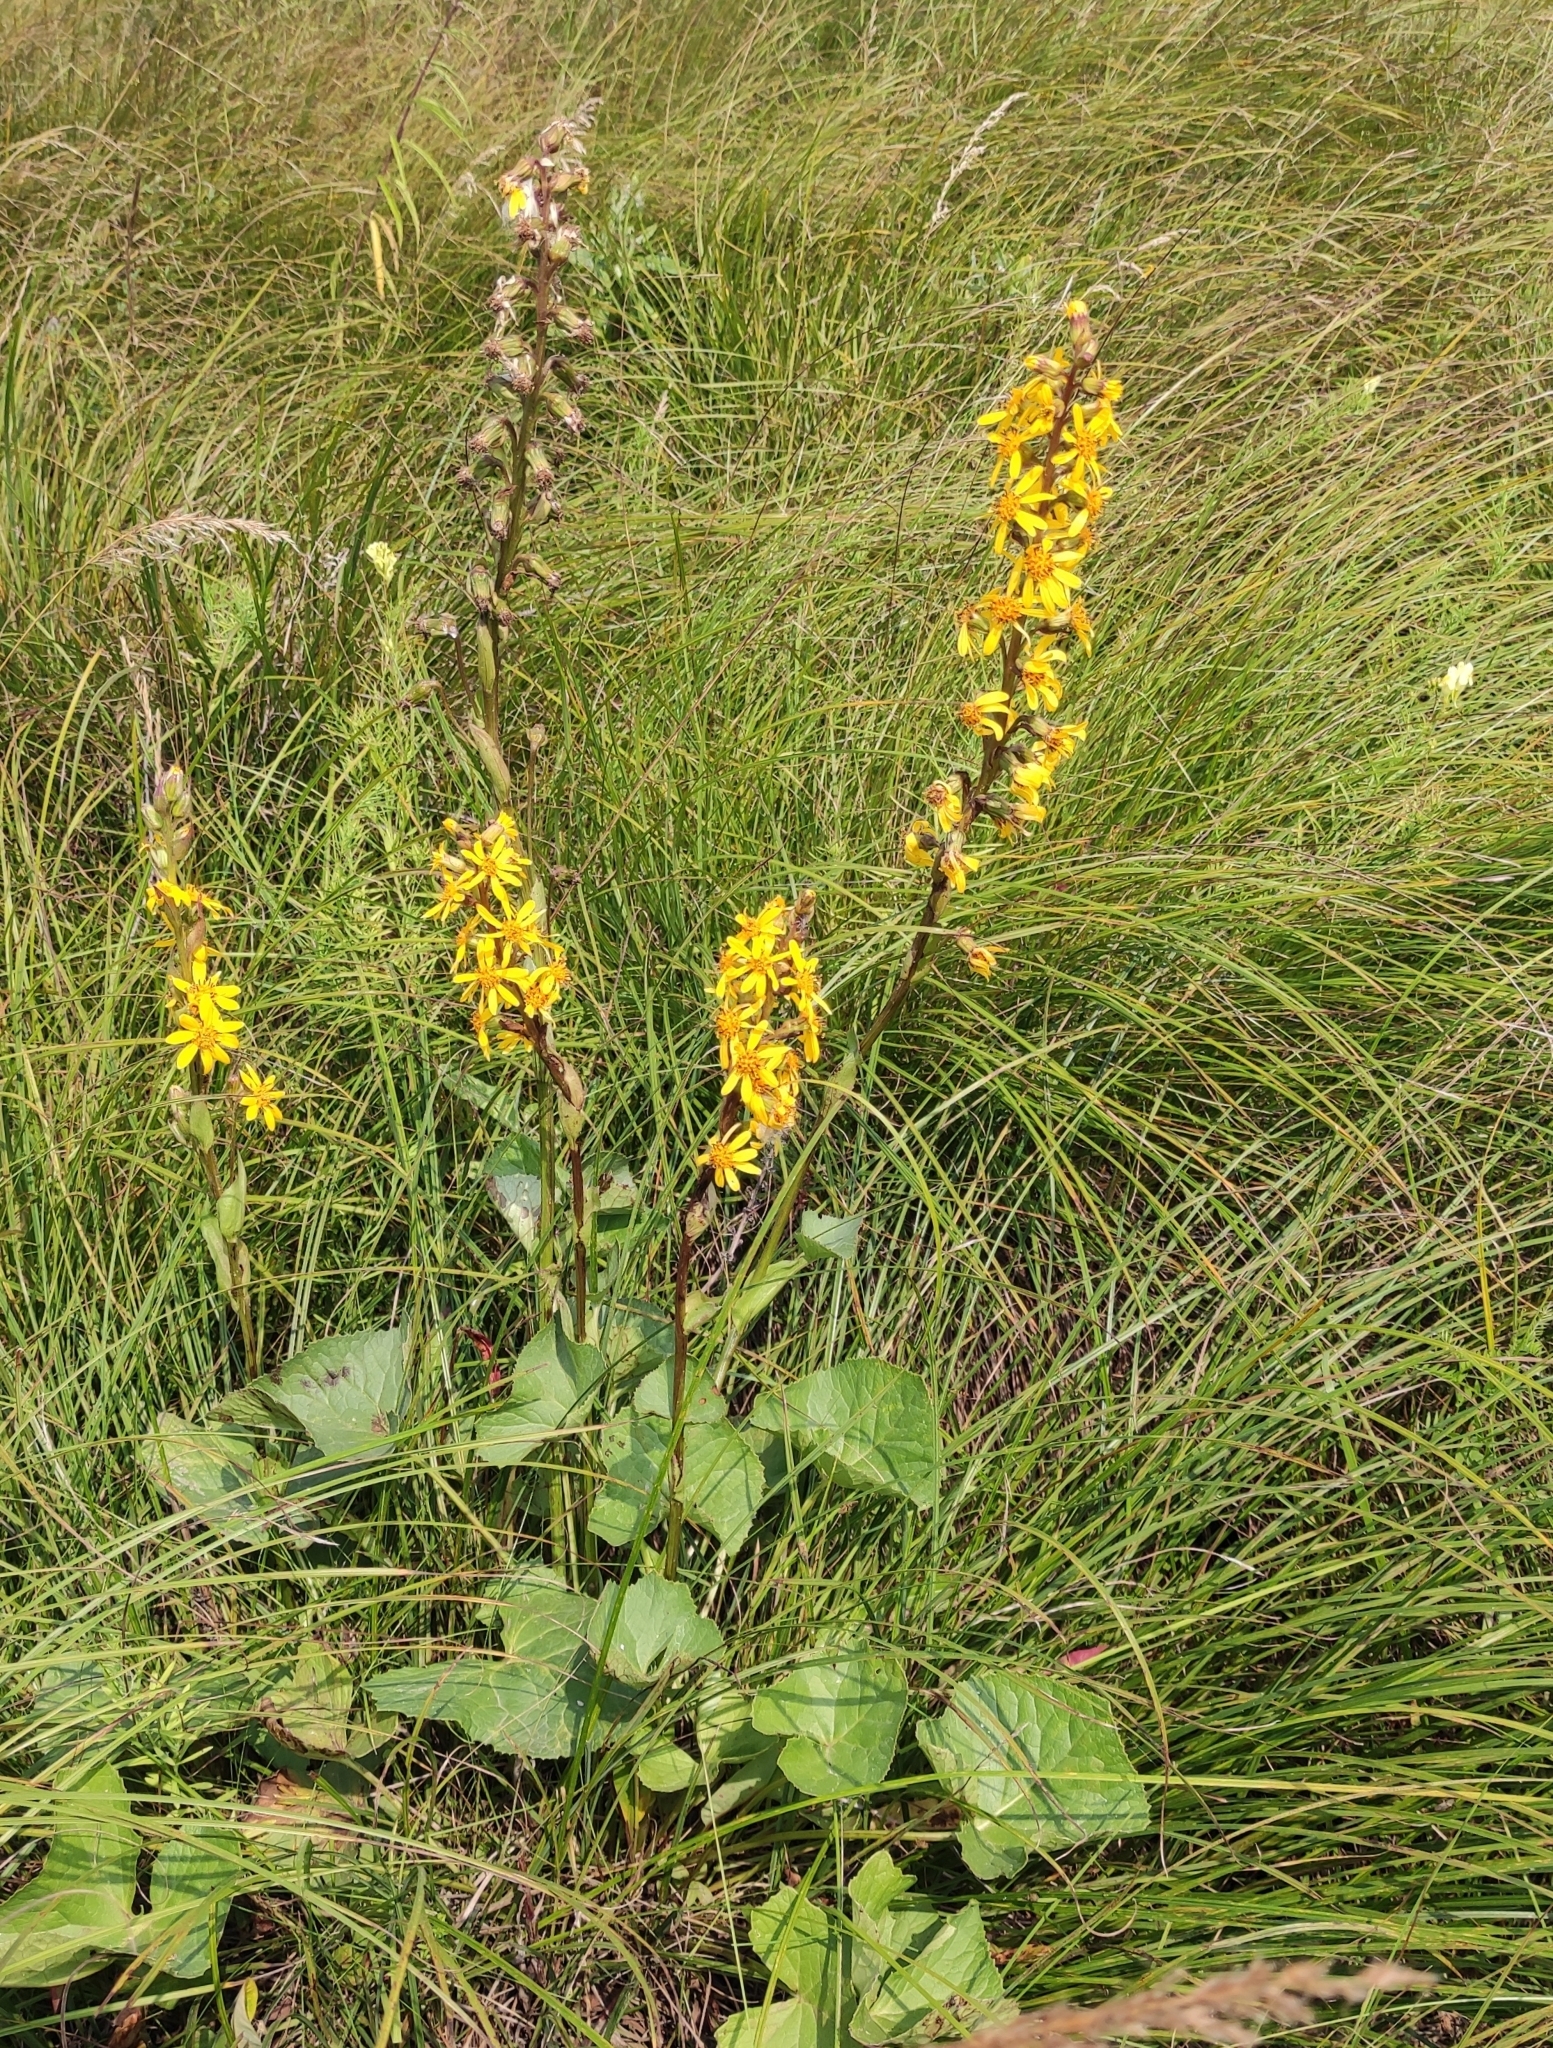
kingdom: Plantae
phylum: Tracheophyta
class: Magnoliopsida
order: Asterales
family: Asteraceae
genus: Ligularia
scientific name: Ligularia sibirica
